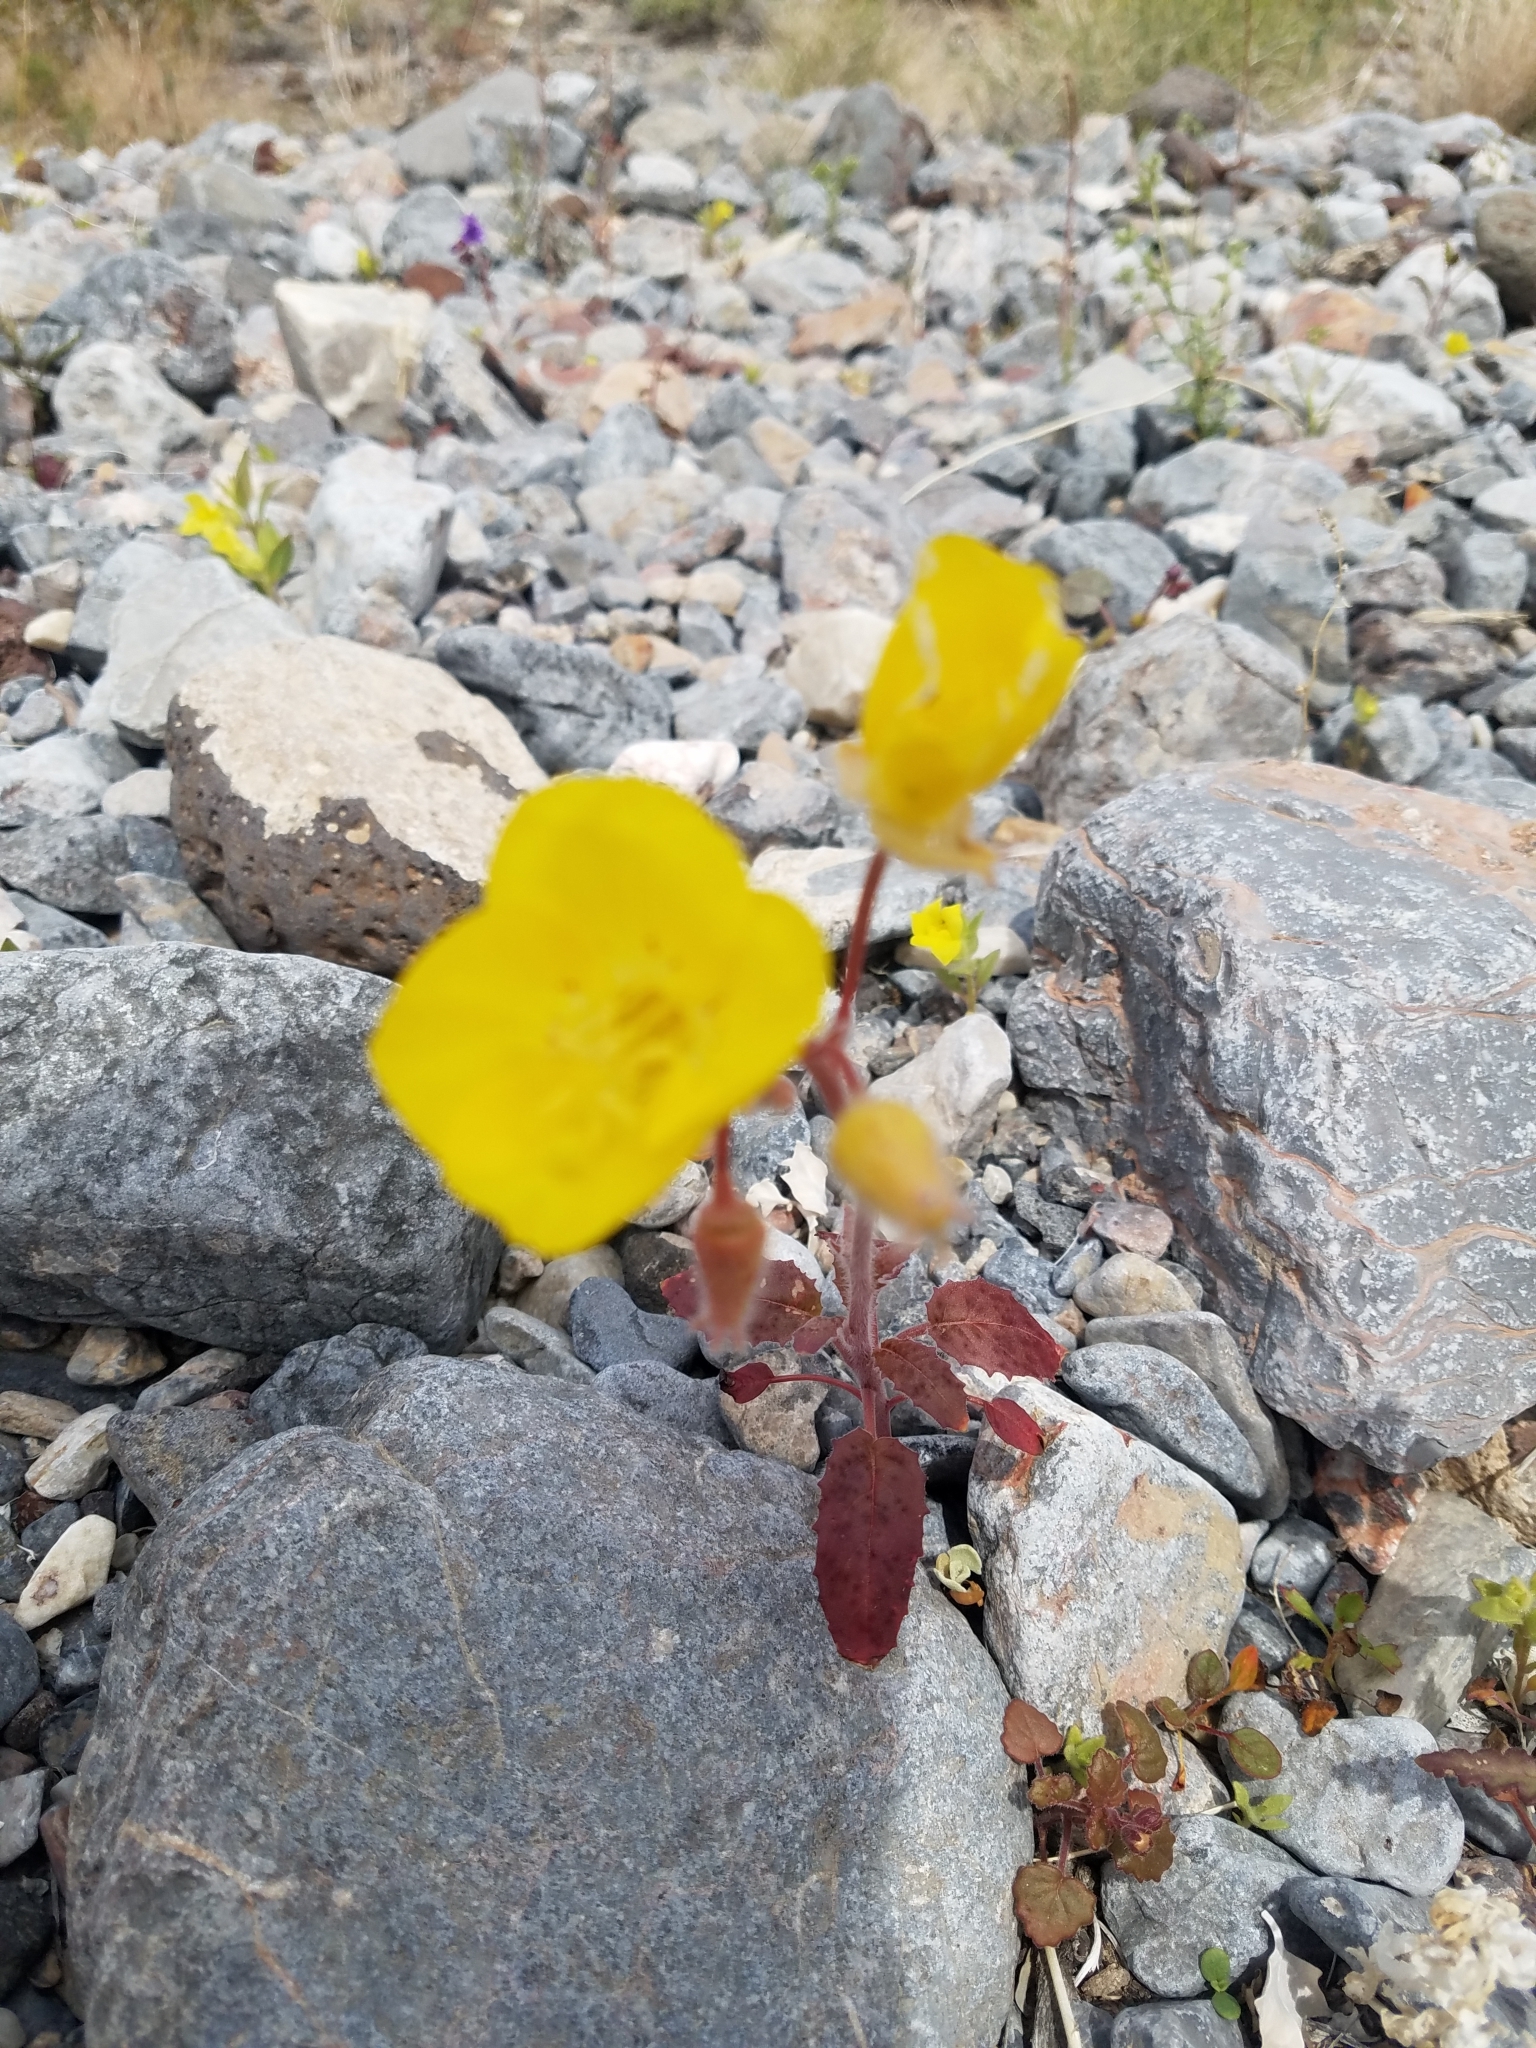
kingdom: Plantae
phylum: Tracheophyta
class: Magnoliopsida
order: Myrtales
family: Onagraceae
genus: Chylismia
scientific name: Chylismia brevipes
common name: Yellow cups
